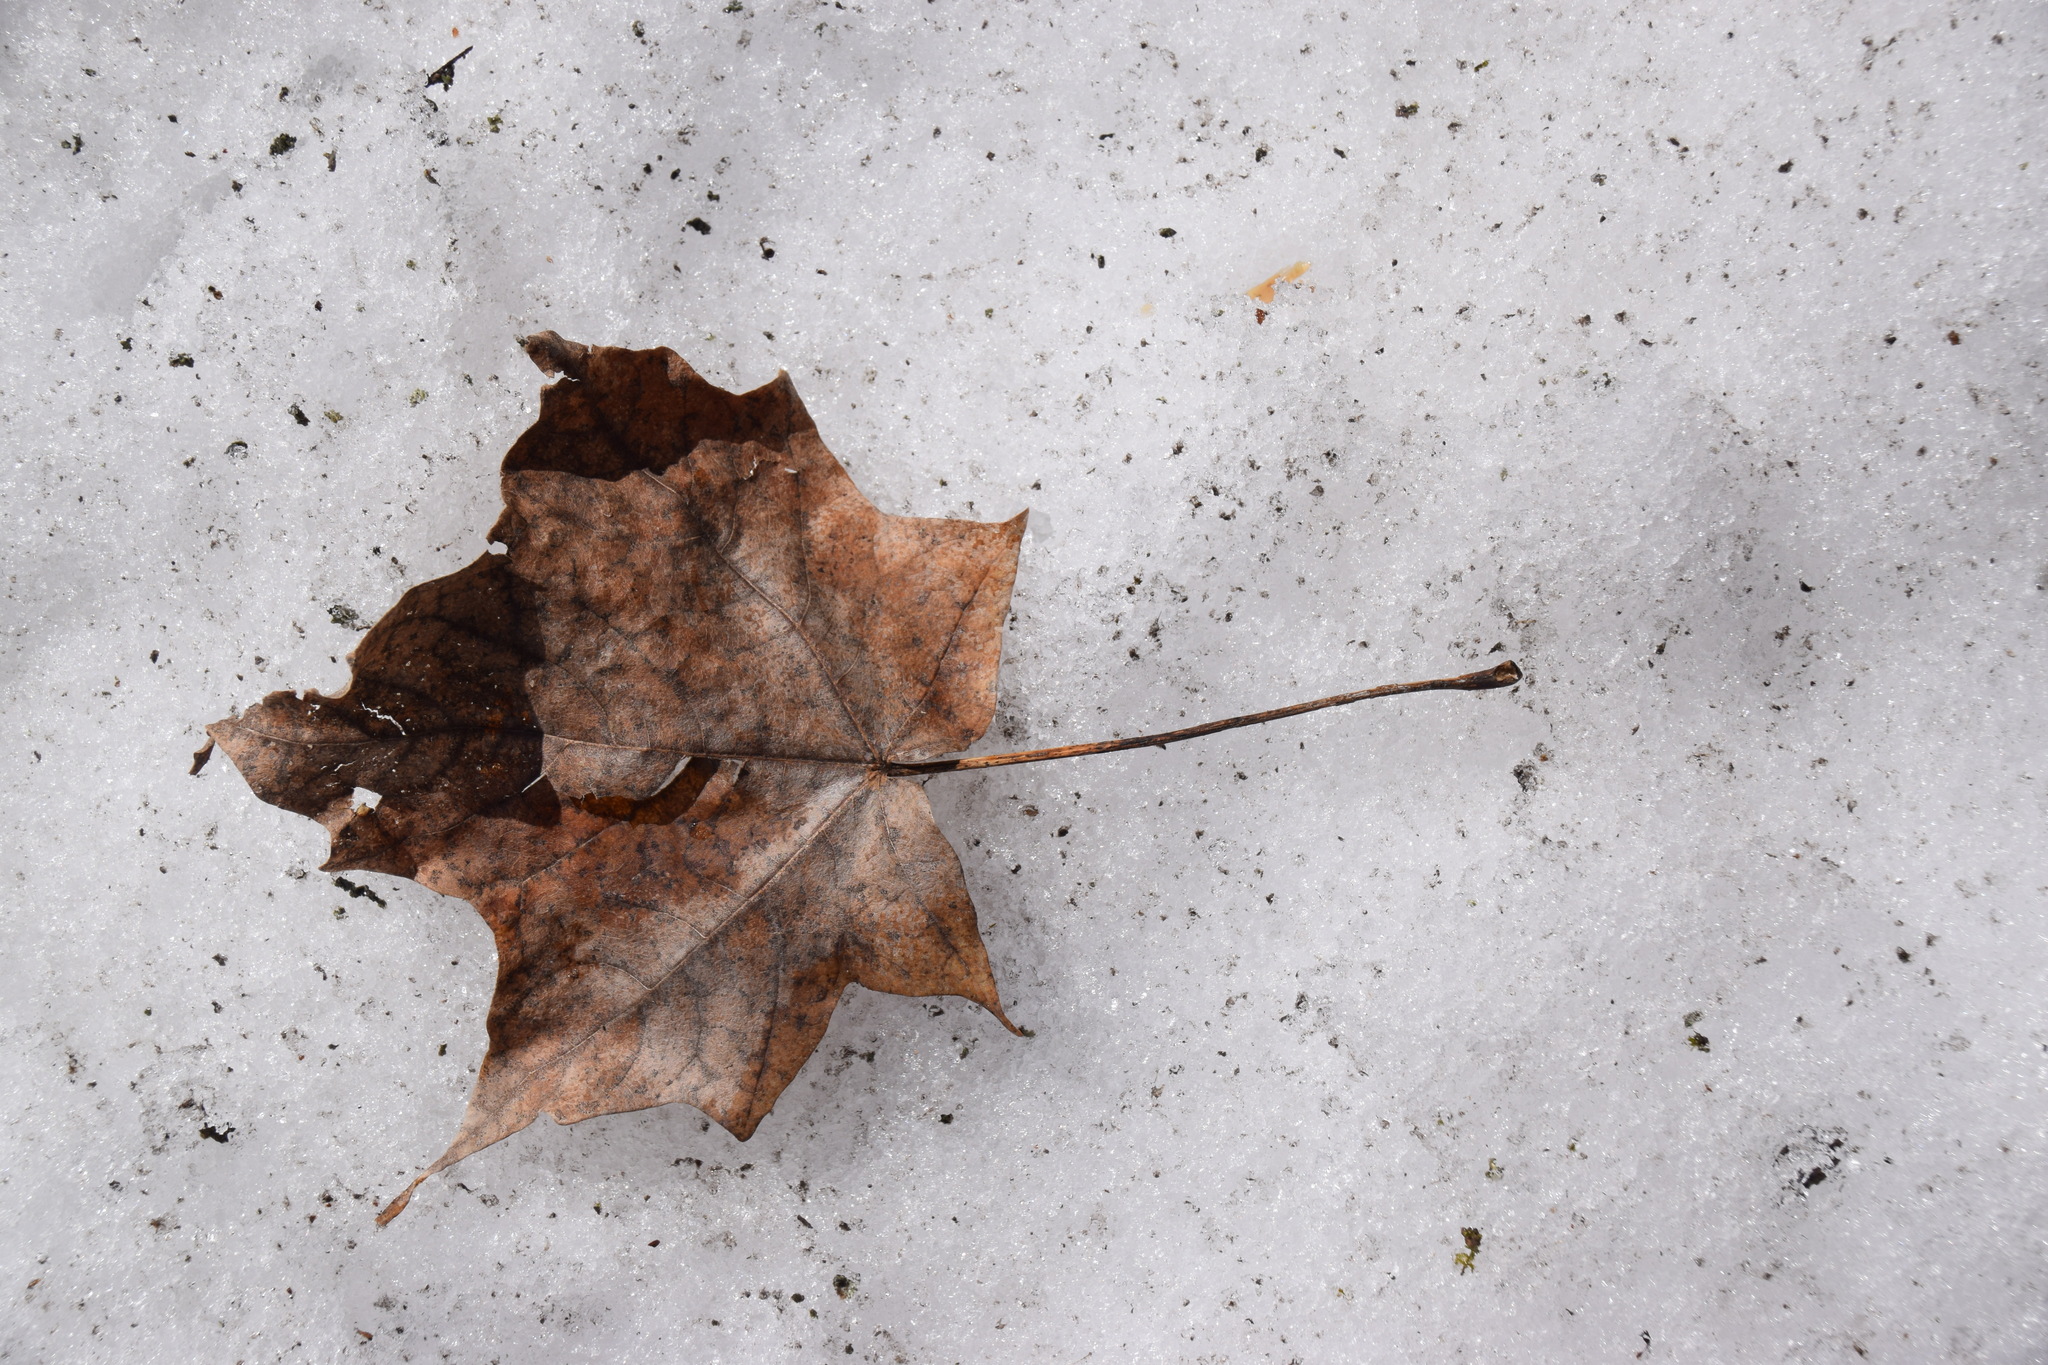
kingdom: Plantae
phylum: Tracheophyta
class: Magnoliopsida
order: Sapindales
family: Sapindaceae
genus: Acer
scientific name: Acer nigrum
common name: Black maple
